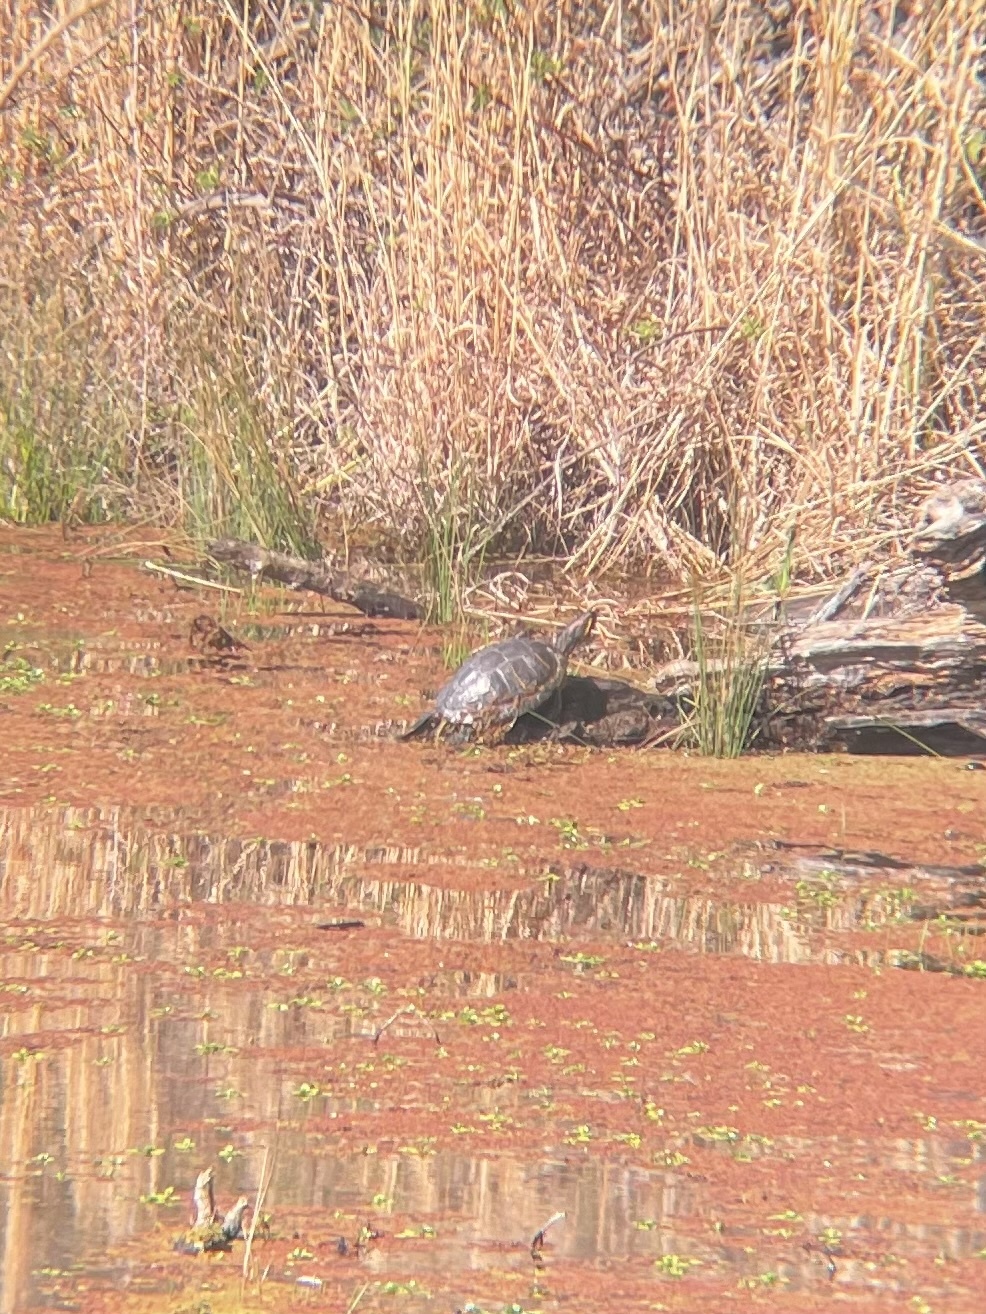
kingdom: Animalia
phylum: Chordata
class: Testudines
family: Emydidae
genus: Trachemys
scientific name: Trachemys scripta
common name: Slider
